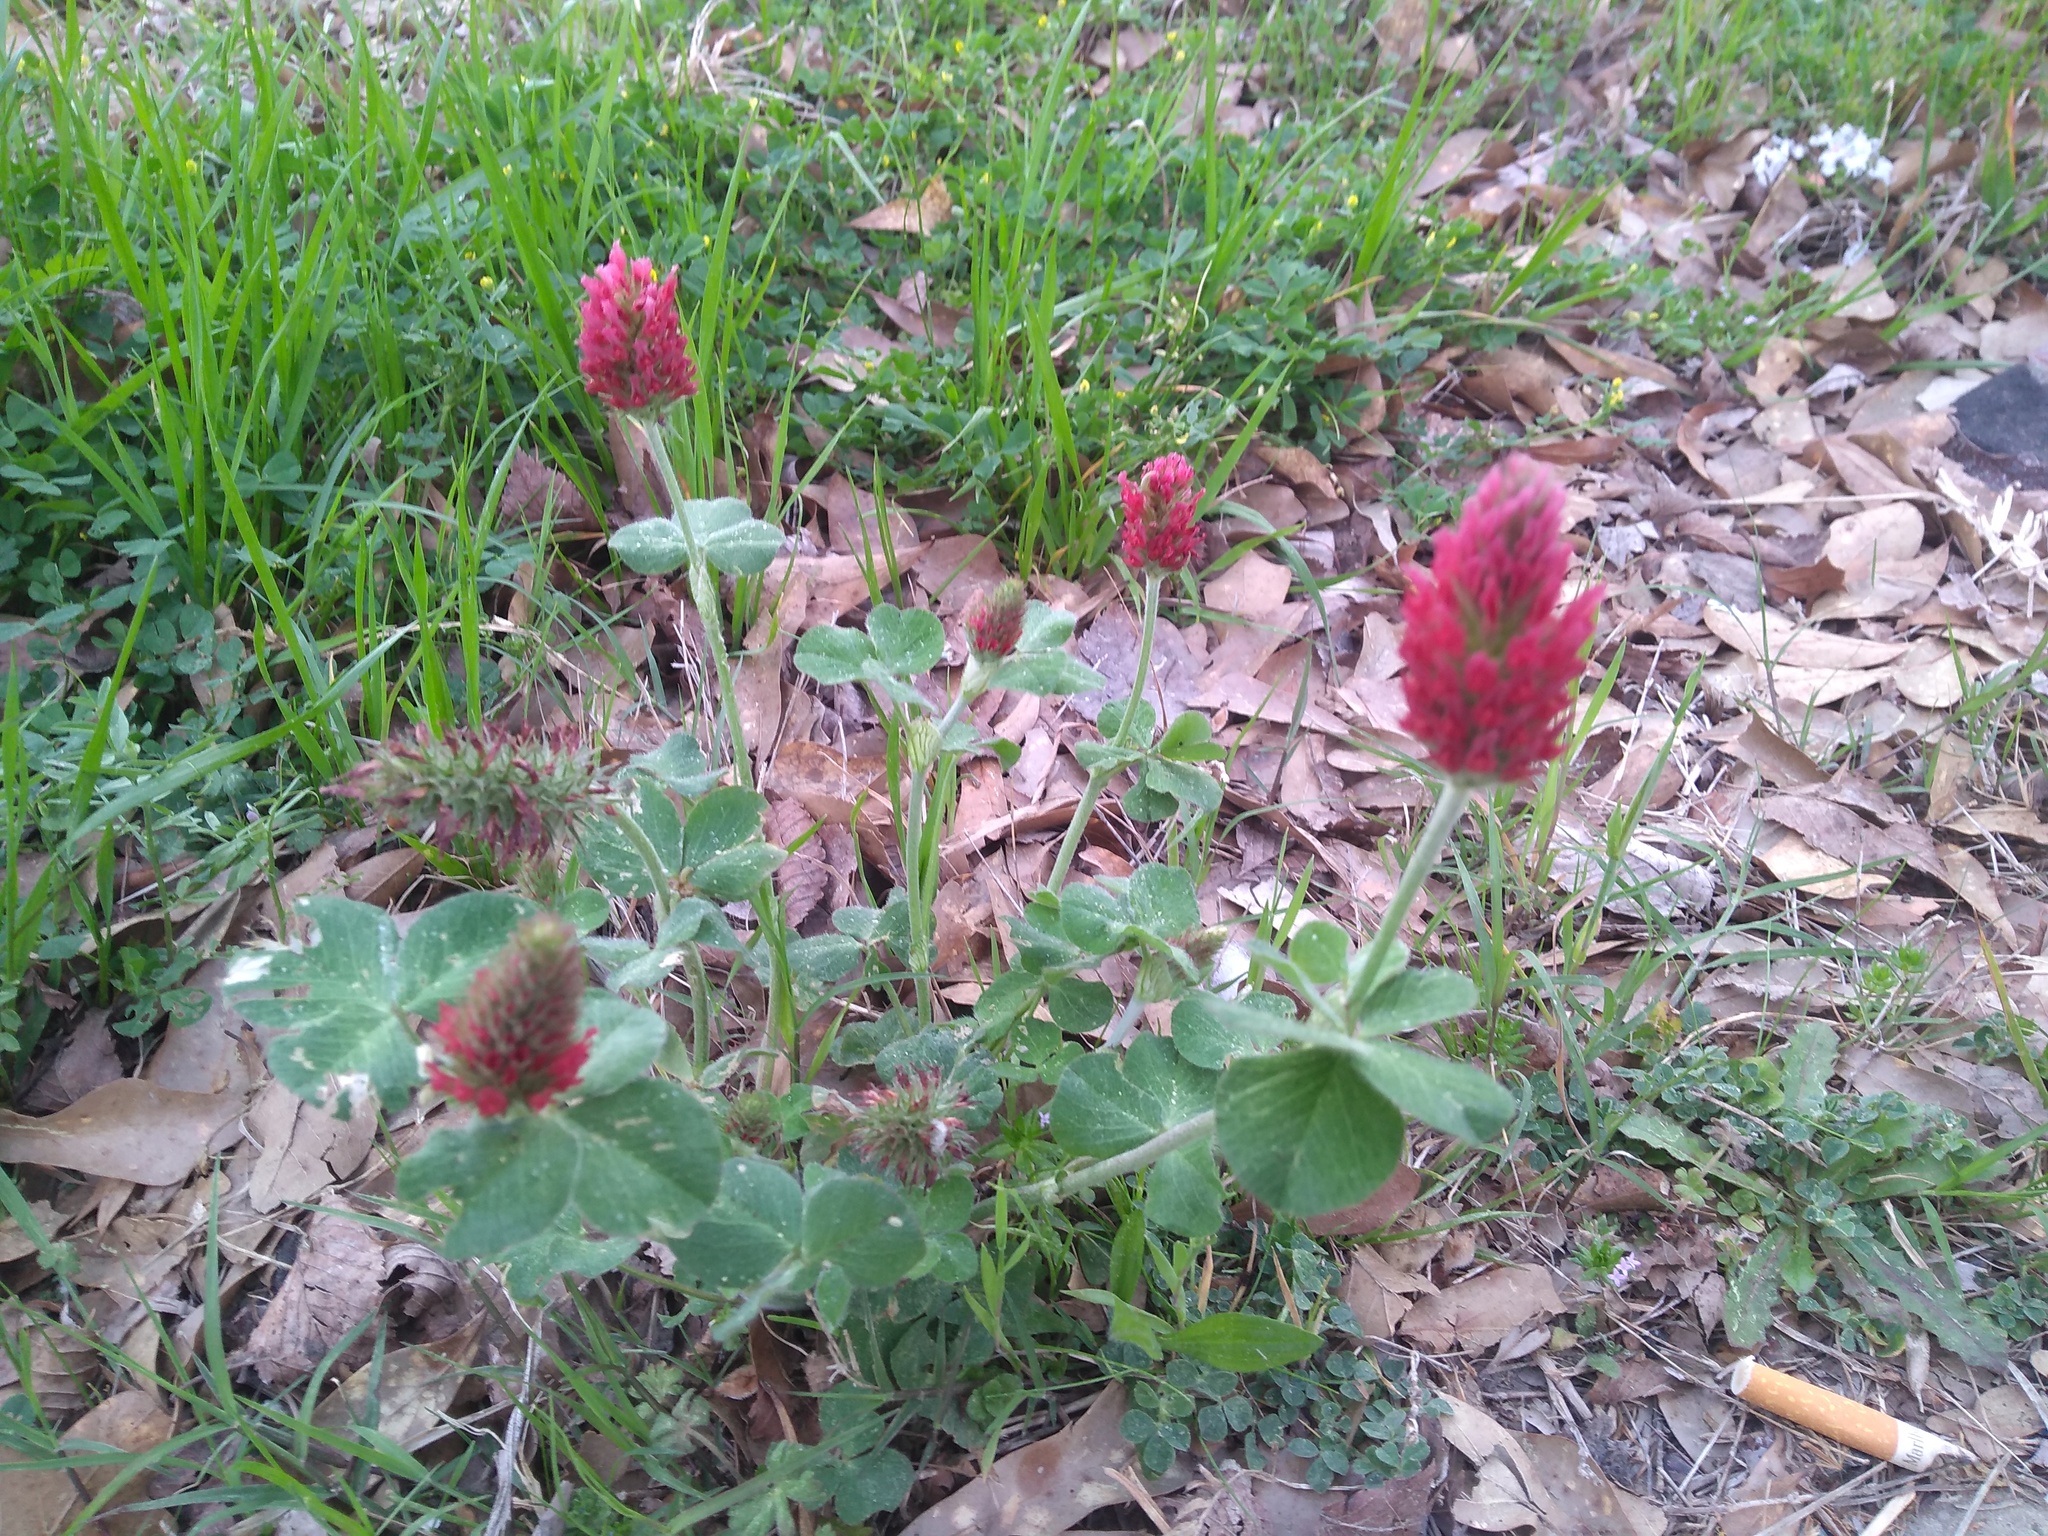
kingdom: Plantae
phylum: Tracheophyta
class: Magnoliopsida
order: Fabales
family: Fabaceae
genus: Trifolium
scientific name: Trifolium incarnatum
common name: Crimson clover
